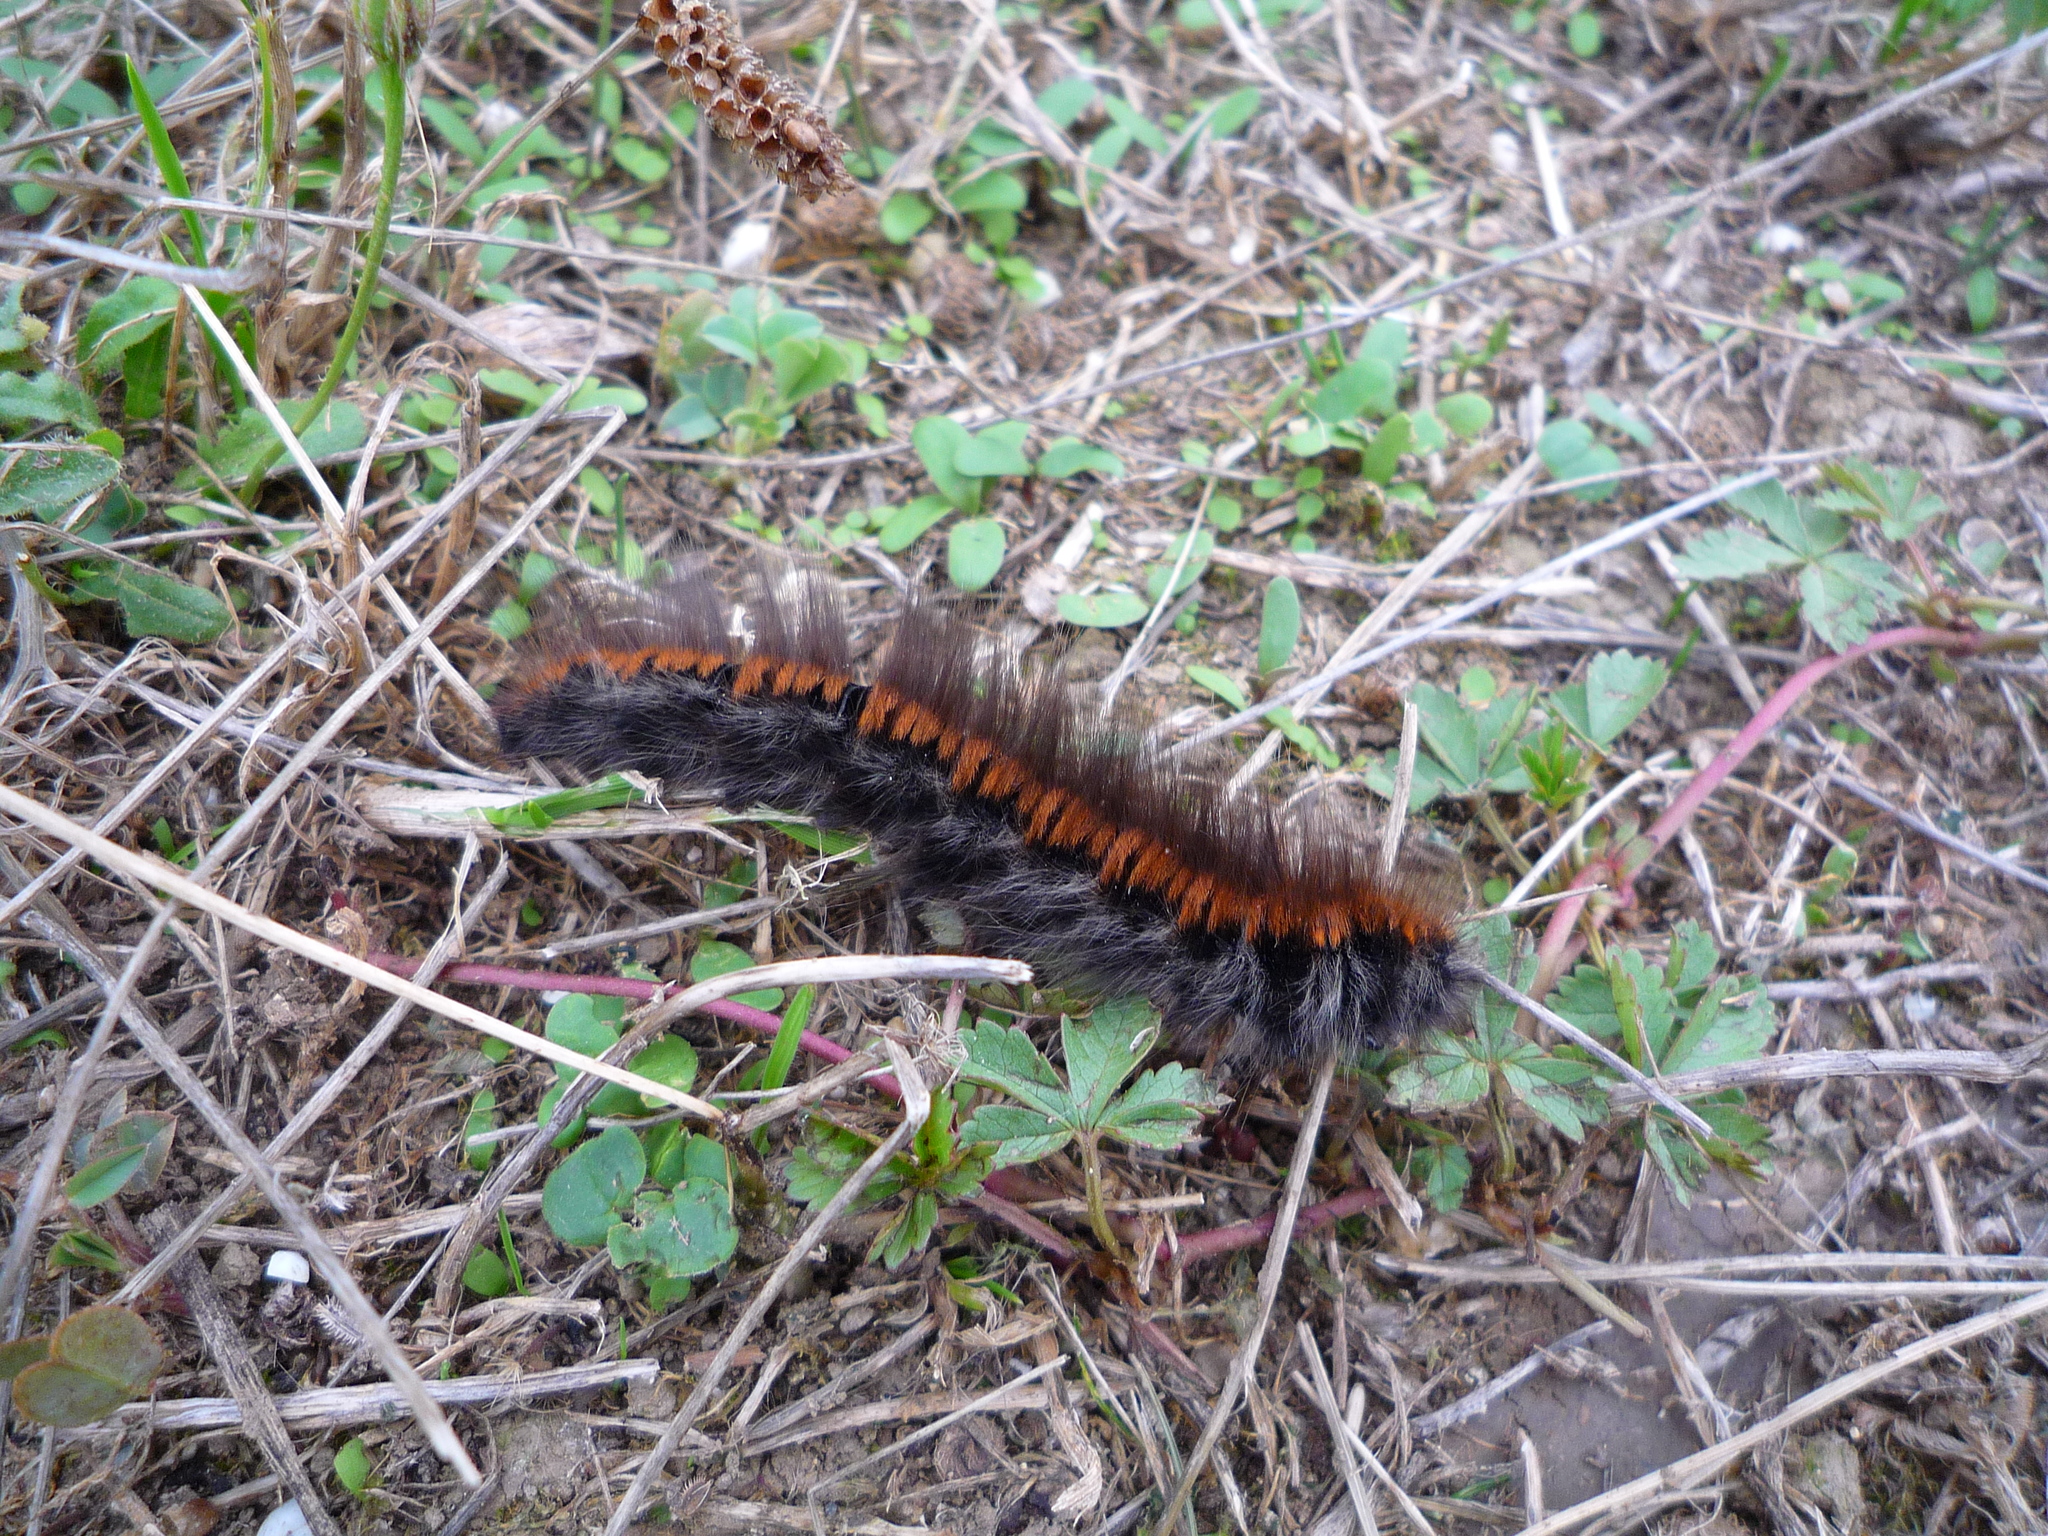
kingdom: Animalia
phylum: Arthropoda
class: Insecta
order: Lepidoptera
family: Lasiocampidae
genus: Macrothylacia
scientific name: Macrothylacia rubi
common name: Fox moth
